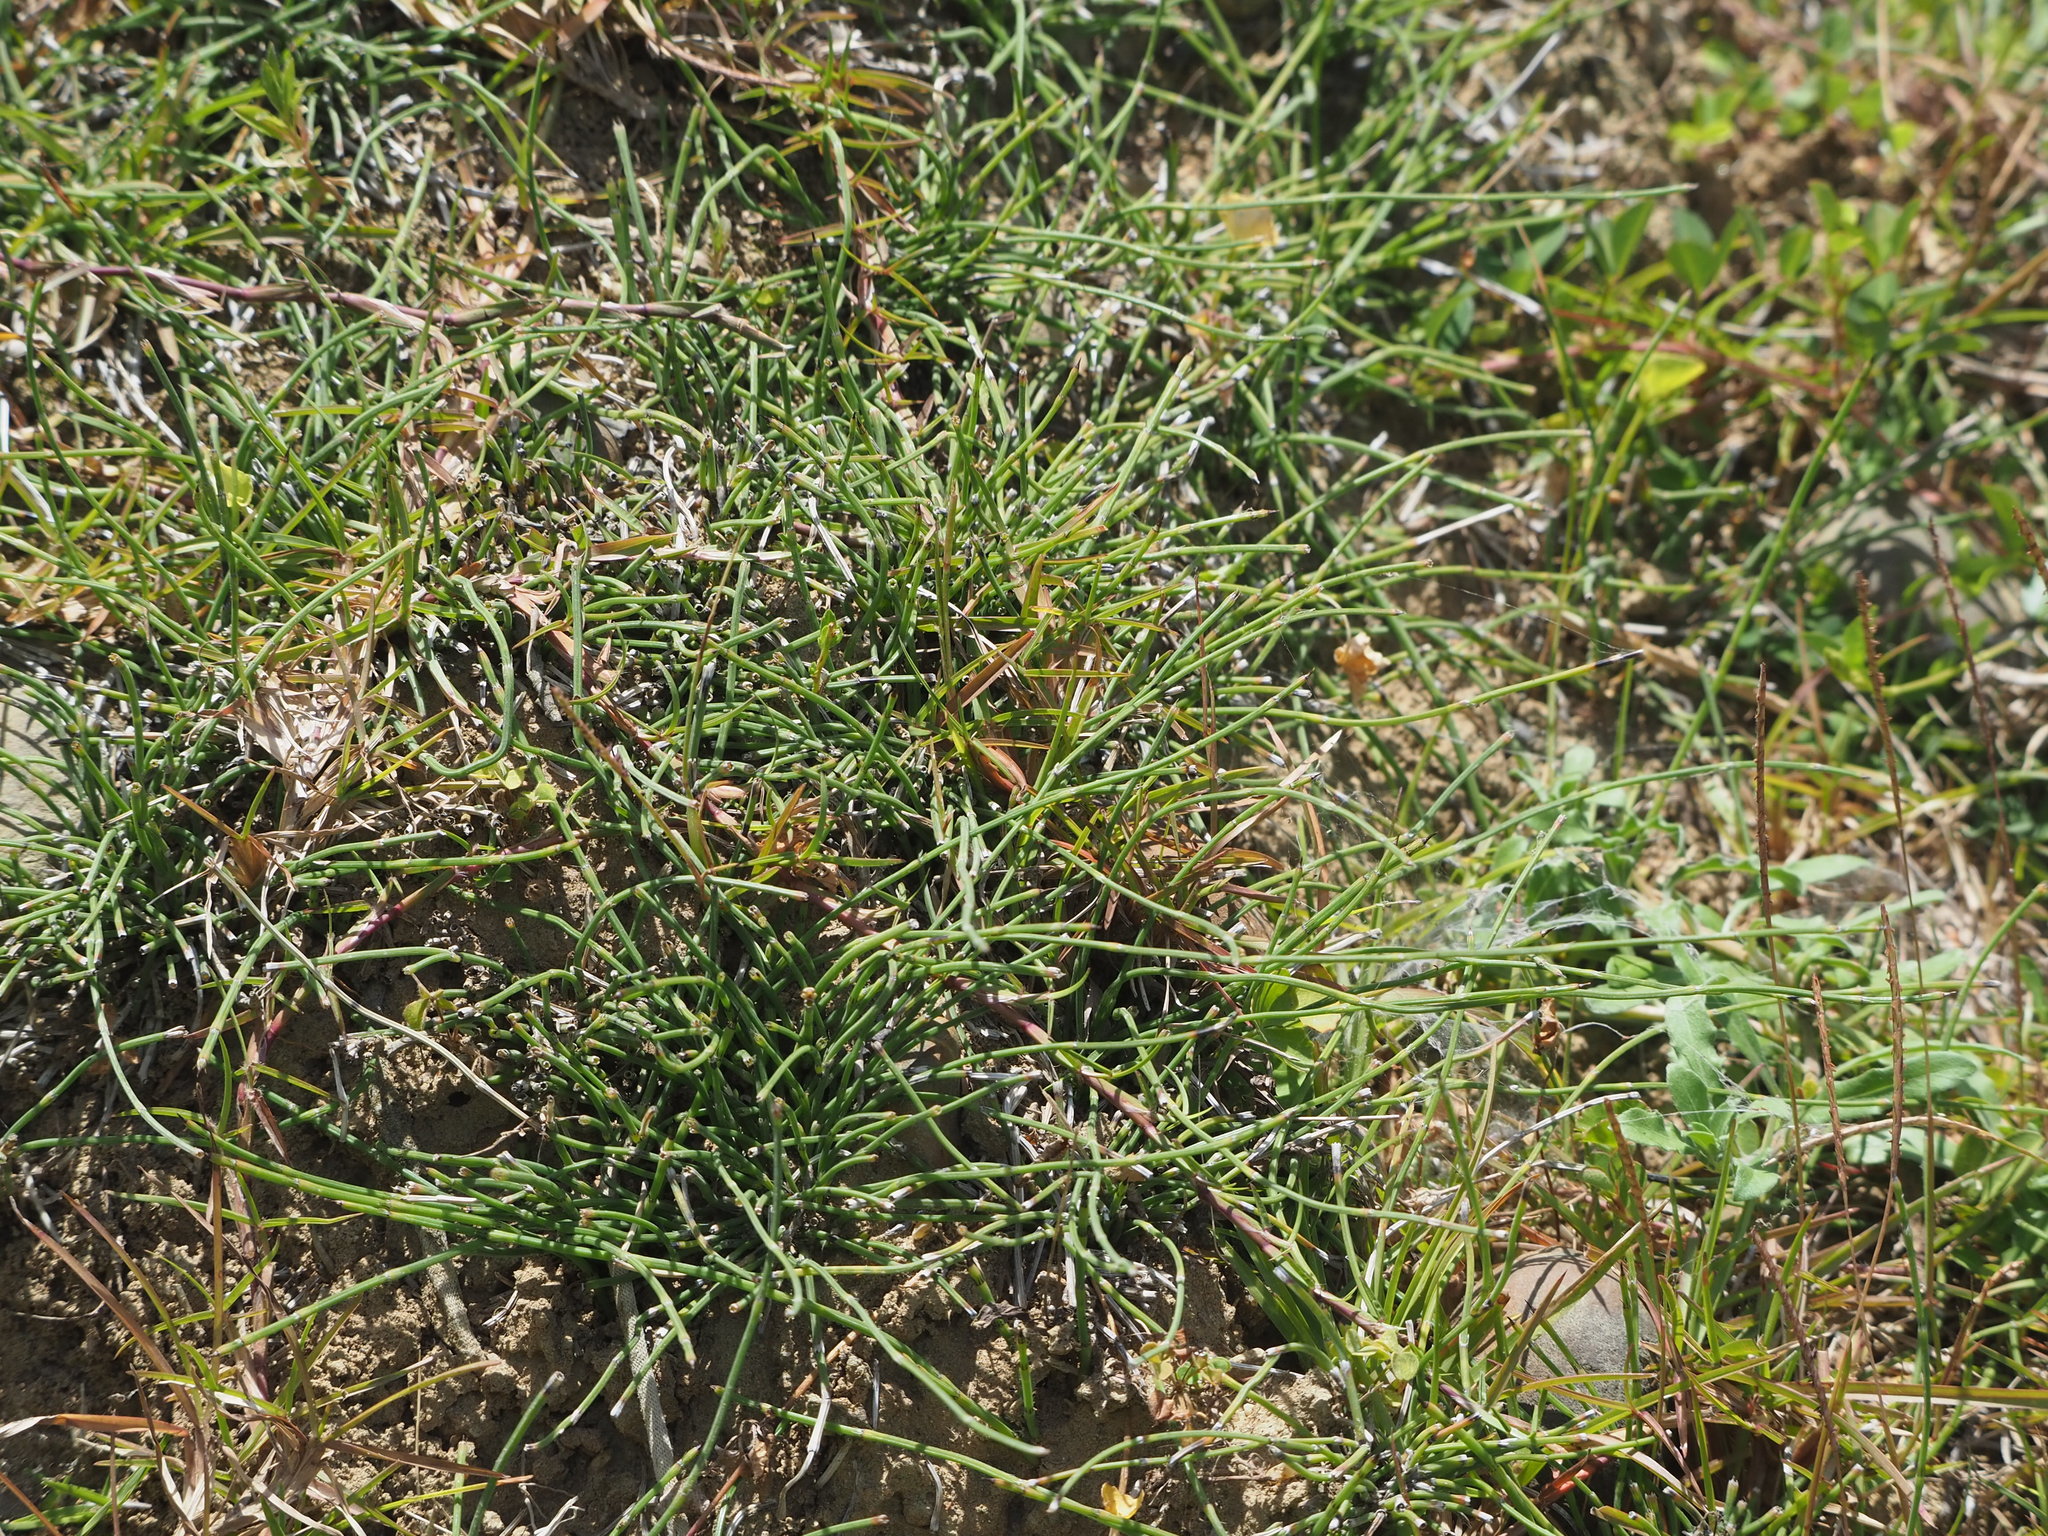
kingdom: Plantae
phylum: Tracheophyta
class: Polypodiopsida
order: Equisetales
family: Equisetaceae
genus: Equisetum
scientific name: Equisetum ramosissimum
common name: Branched horsetail
